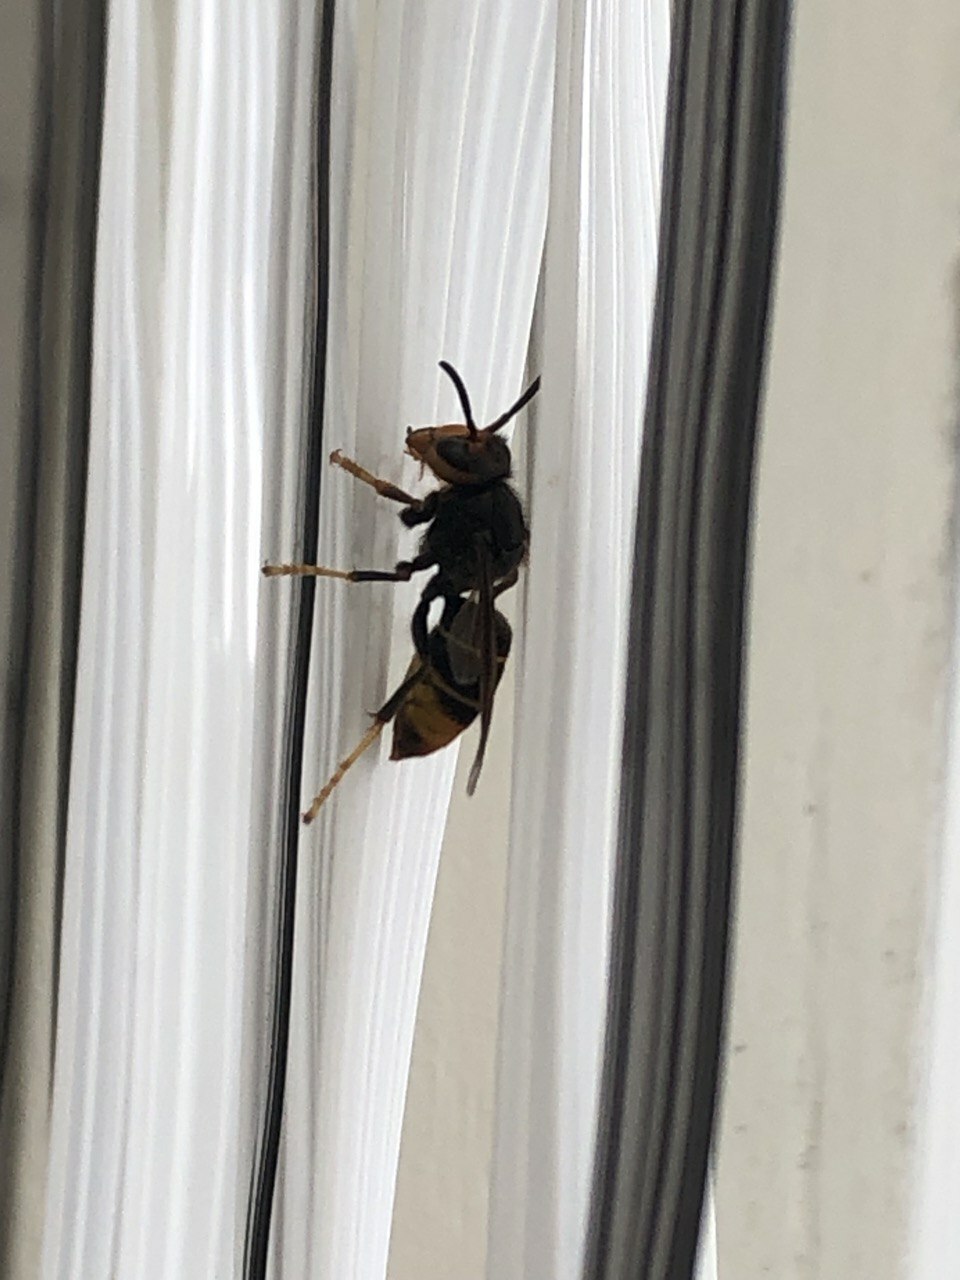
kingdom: Animalia
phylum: Arthropoda
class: Insecta
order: Hymenoptera
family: Vespidae
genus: Vespa
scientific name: Vespa velutina
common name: Asian hornet
